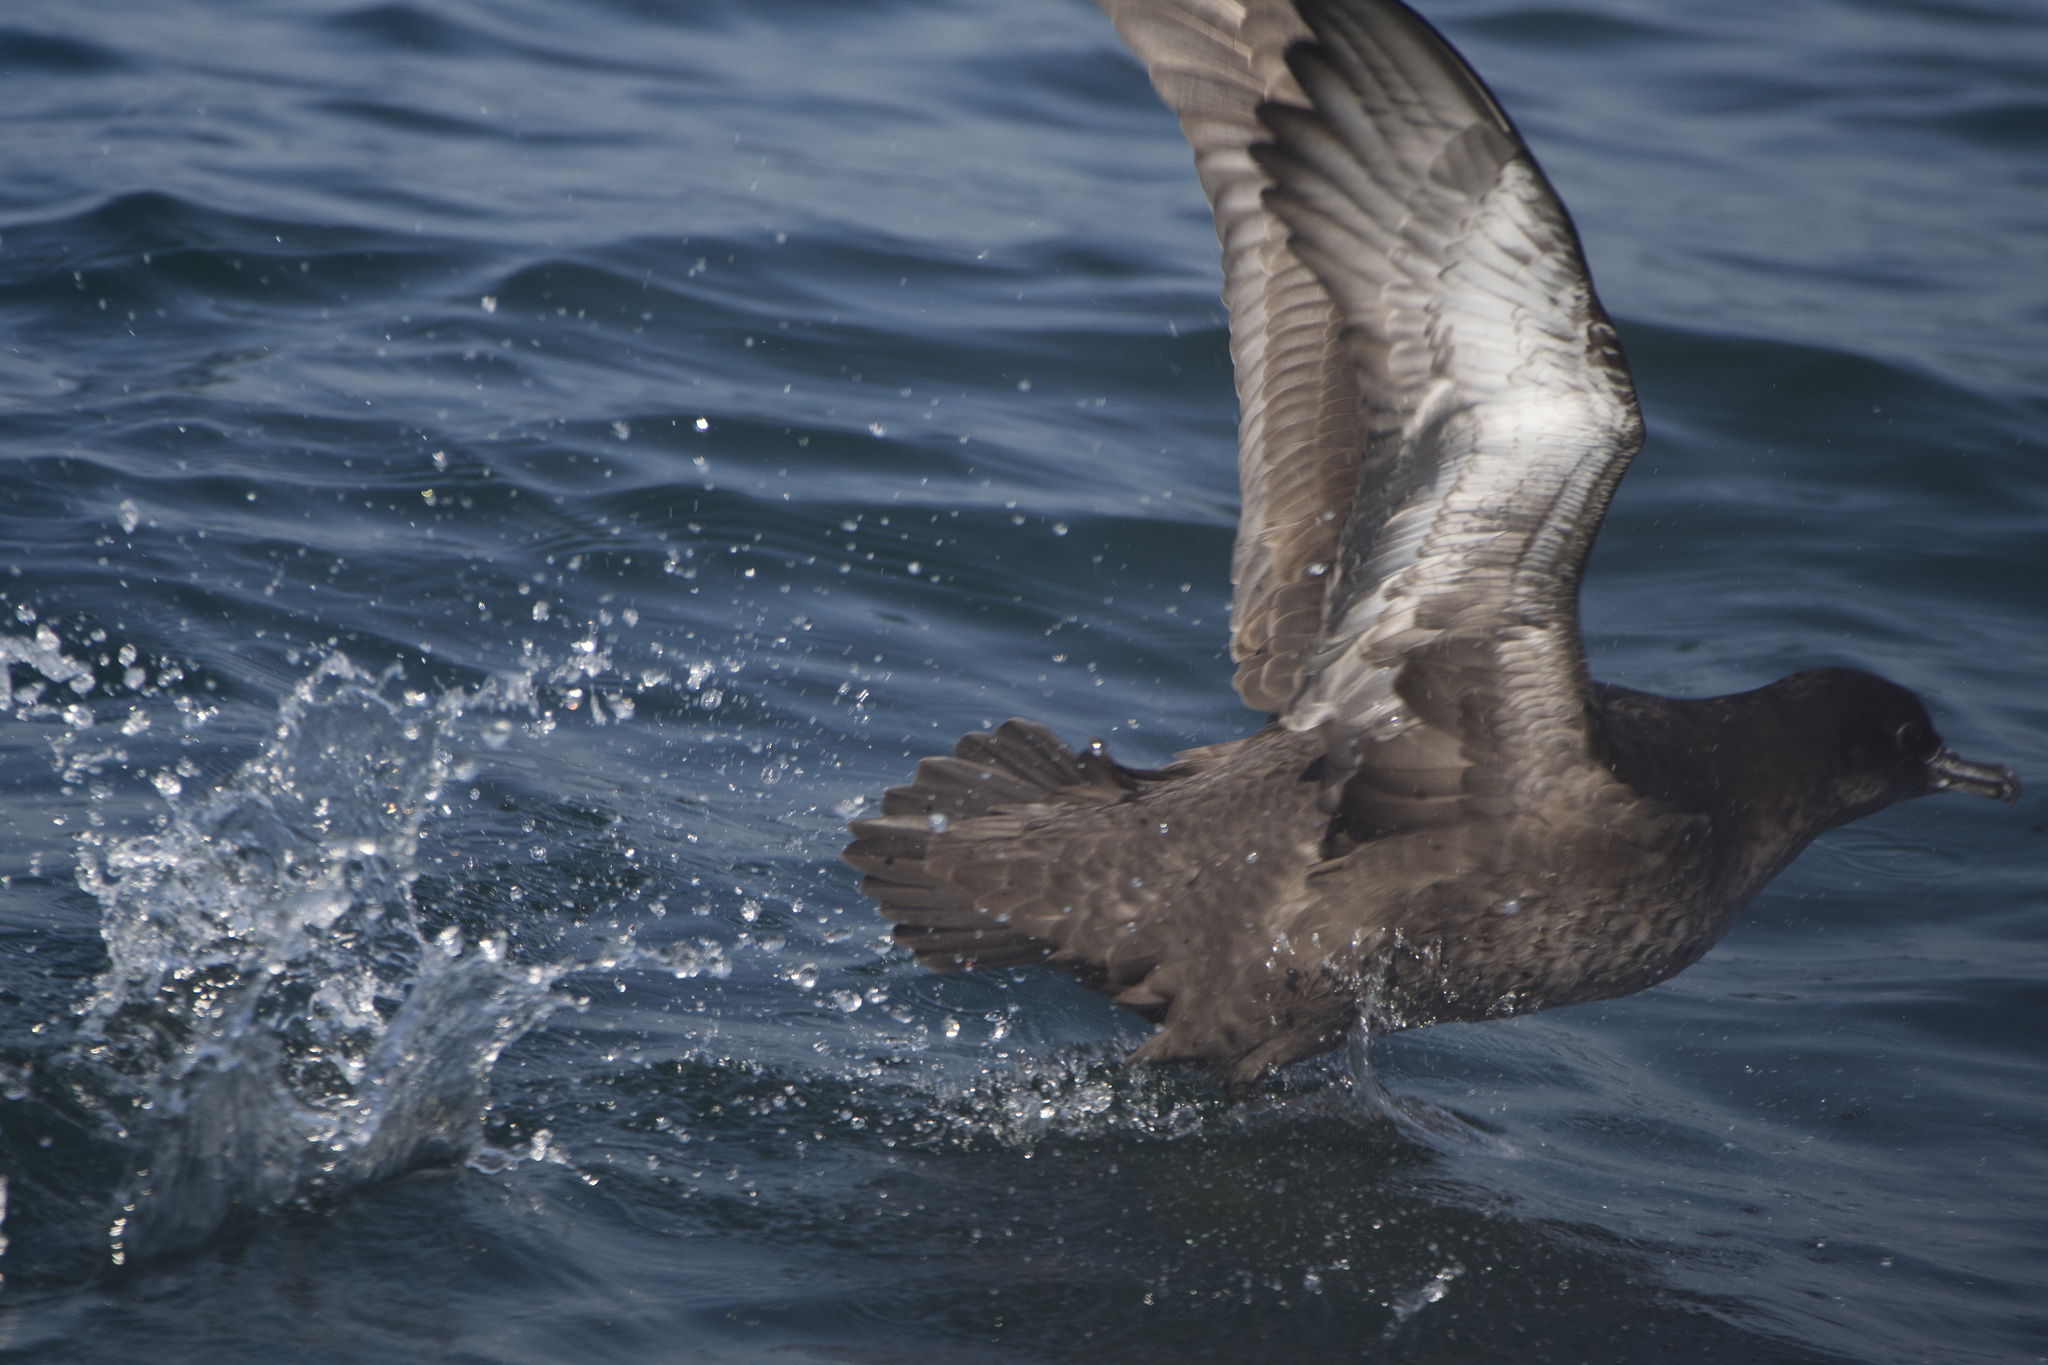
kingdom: Animalia
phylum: Chordata
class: Aves
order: Procellariiformes
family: Procellariidae
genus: Puffinus
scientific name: Puffinus griseus
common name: Sooty shearwater
